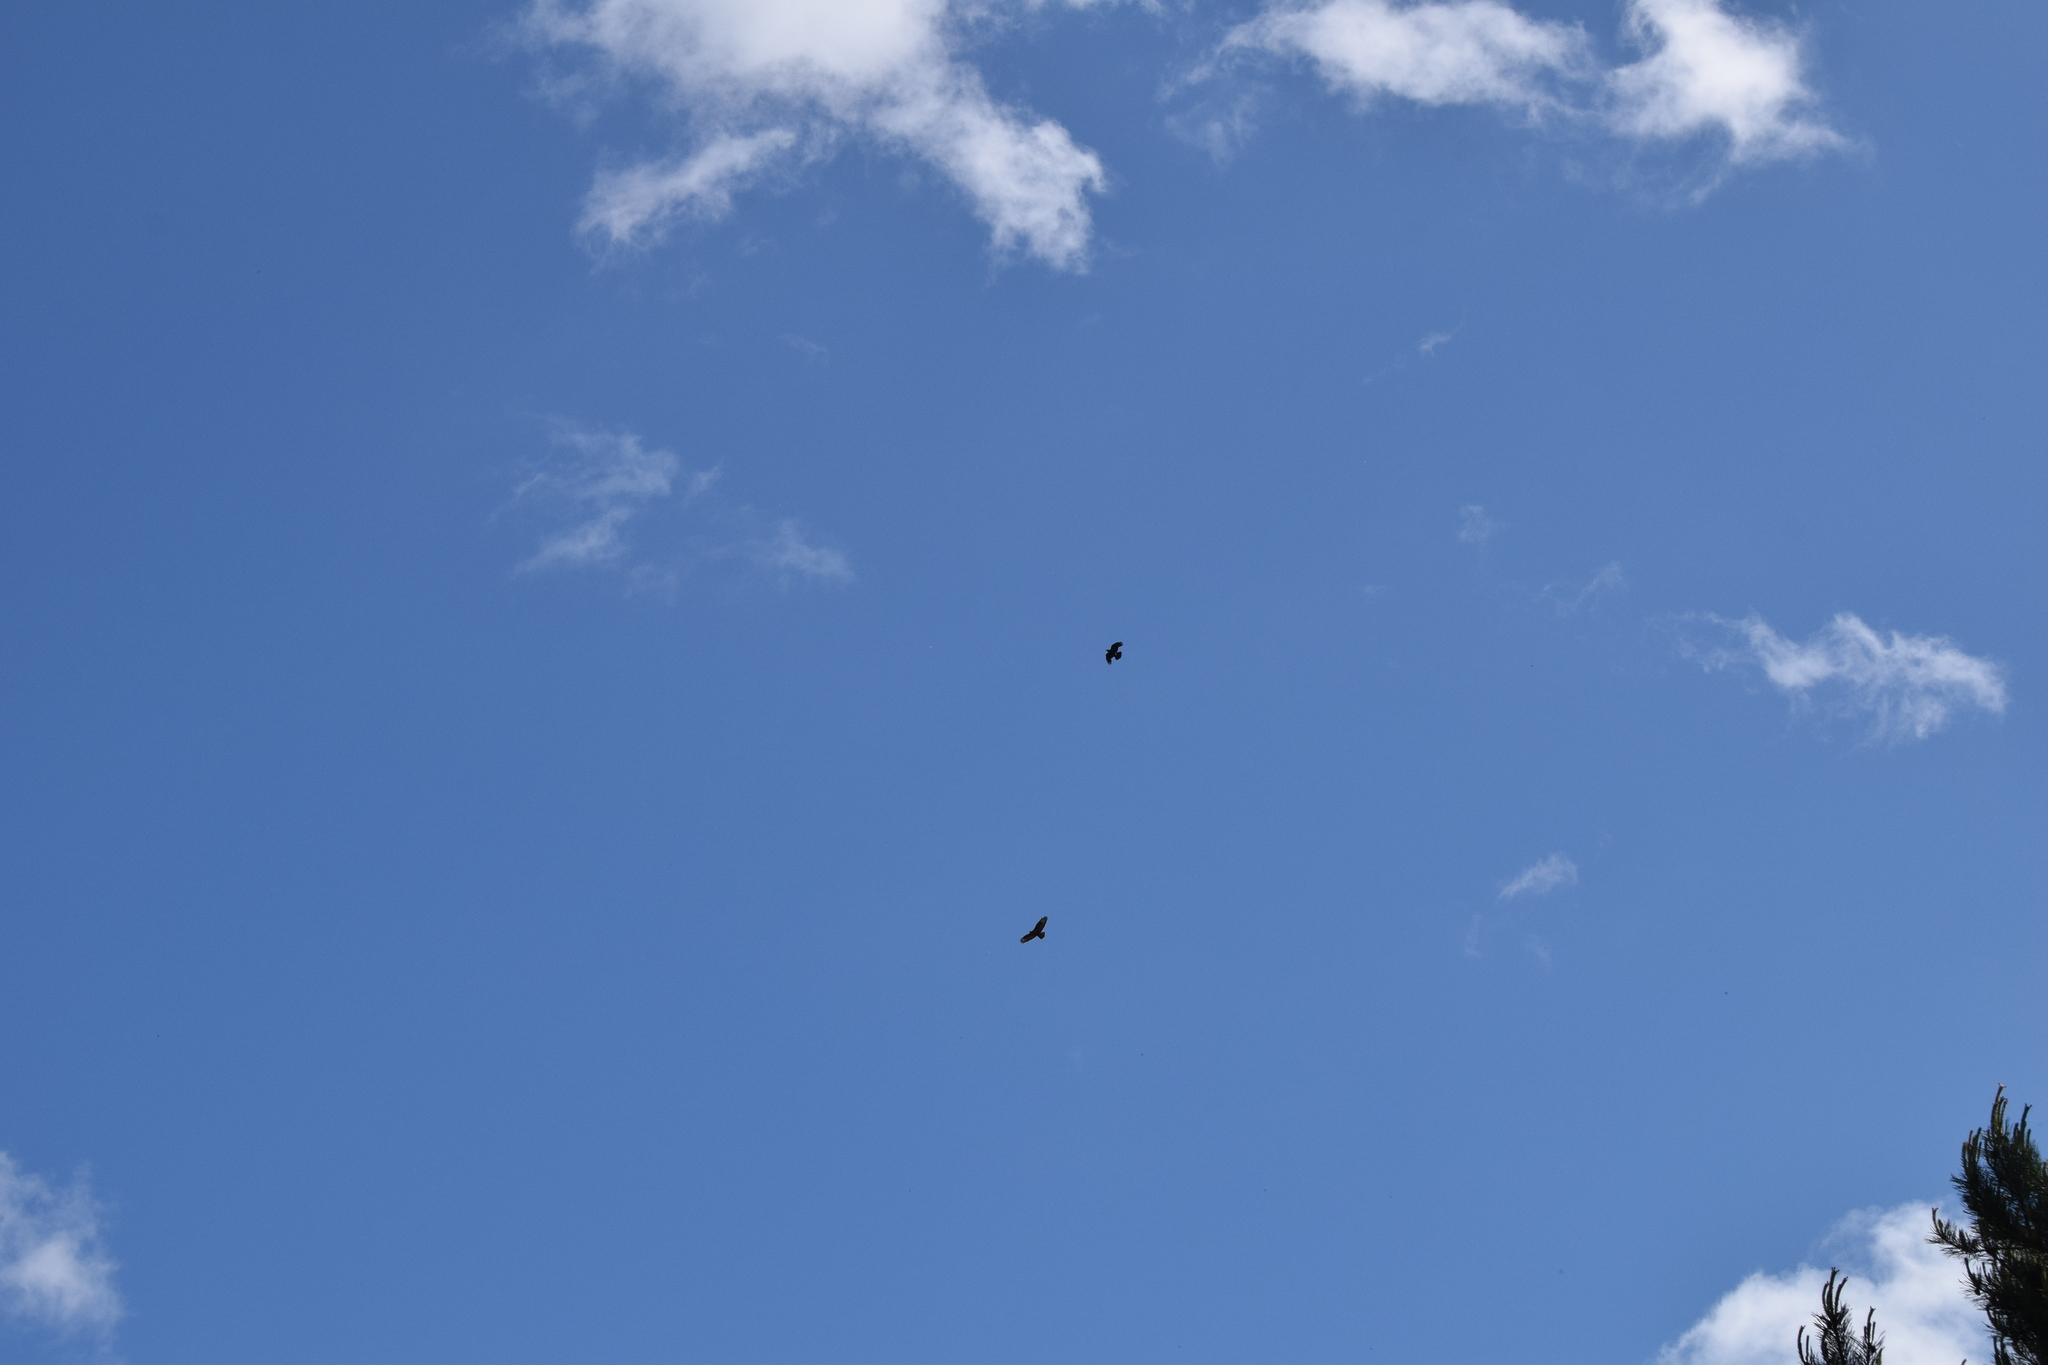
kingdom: Animalia
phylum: Chordata
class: Aves
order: Passeriformes
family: Corvidae
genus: Corvus
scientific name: Corvus corone
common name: Carrion crow
